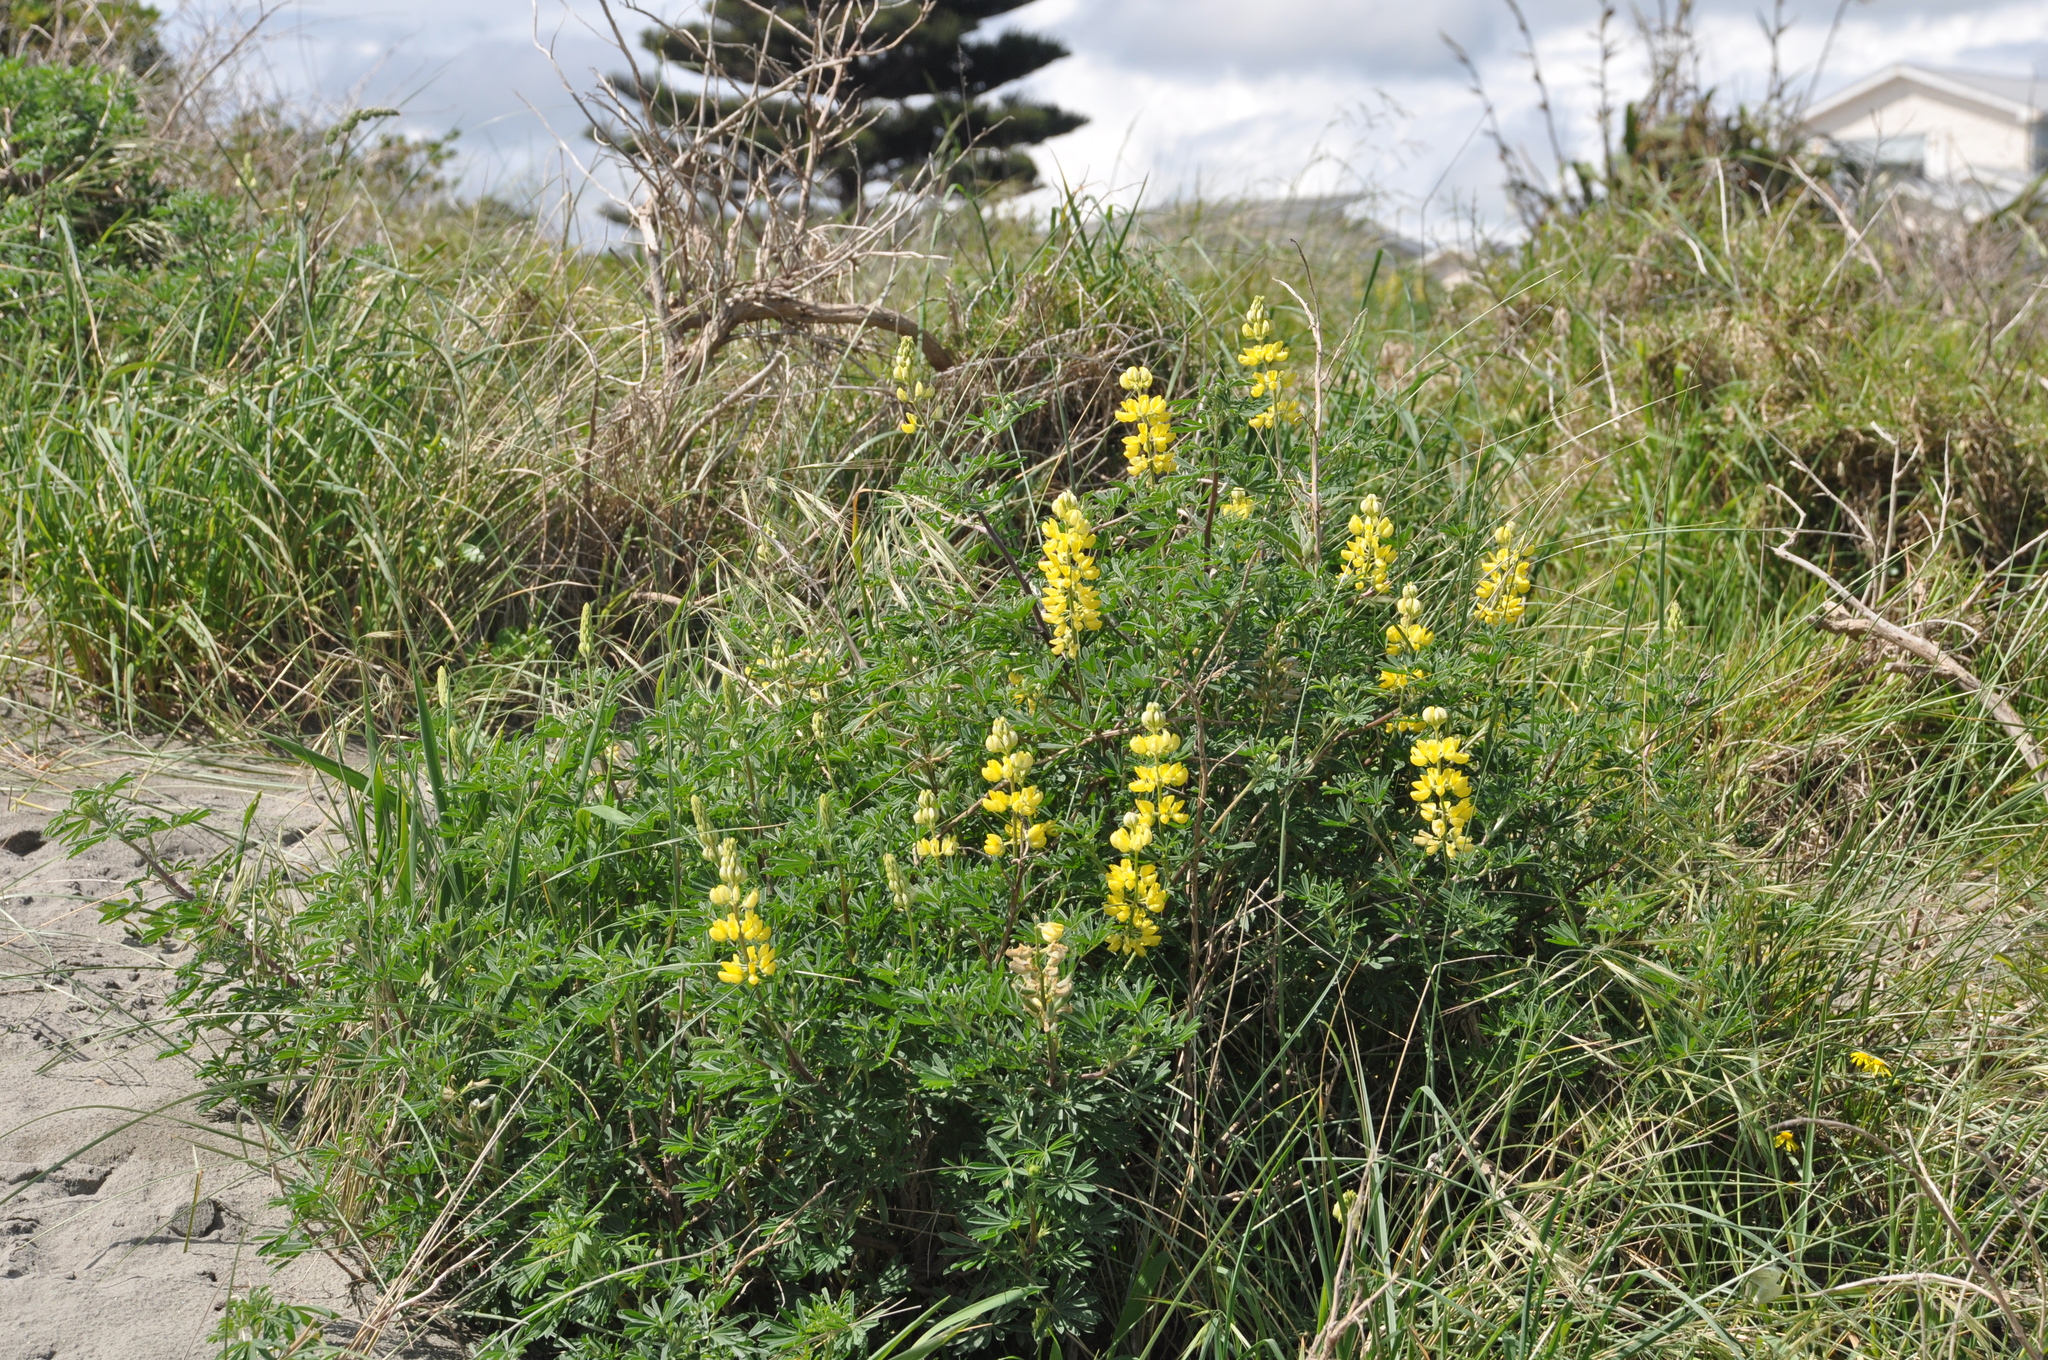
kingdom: Plantae
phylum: Tracheophyta
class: Magnoliopsida
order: Fabales
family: Fabaceae
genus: Lupinus
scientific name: Lupinus arboreus
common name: Yellow bush lupine
